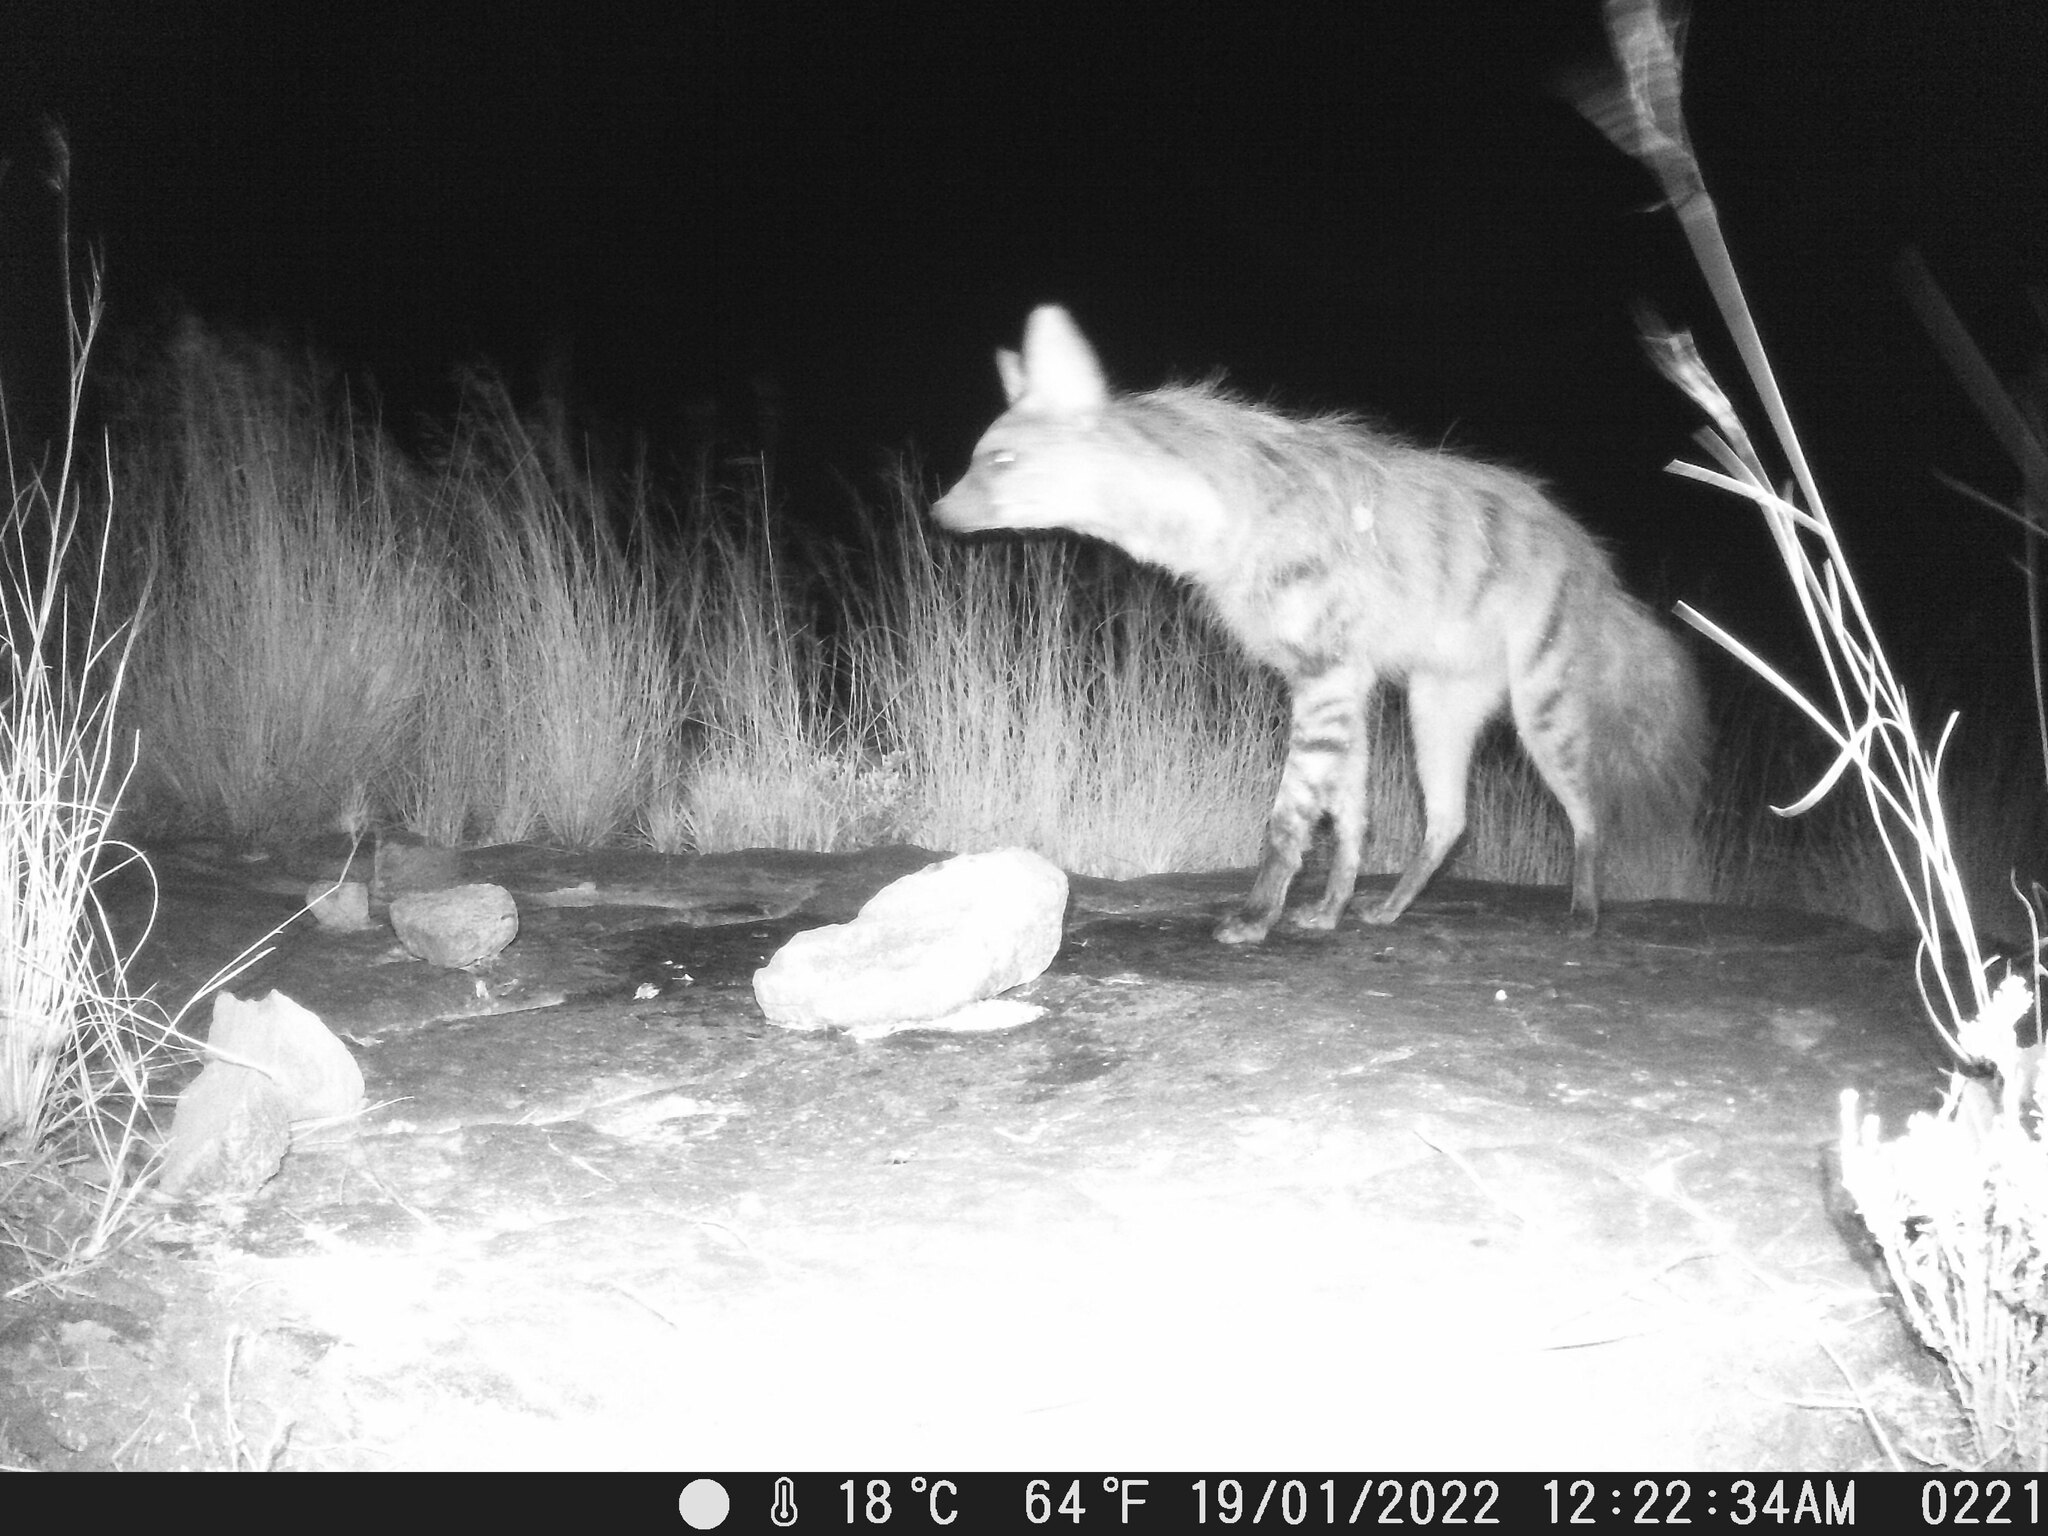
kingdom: Animalia
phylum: Chordata
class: Mammalia
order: Carnivora
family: Hyaenidae
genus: Proteles
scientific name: Proteles cristata
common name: Aardwolf
